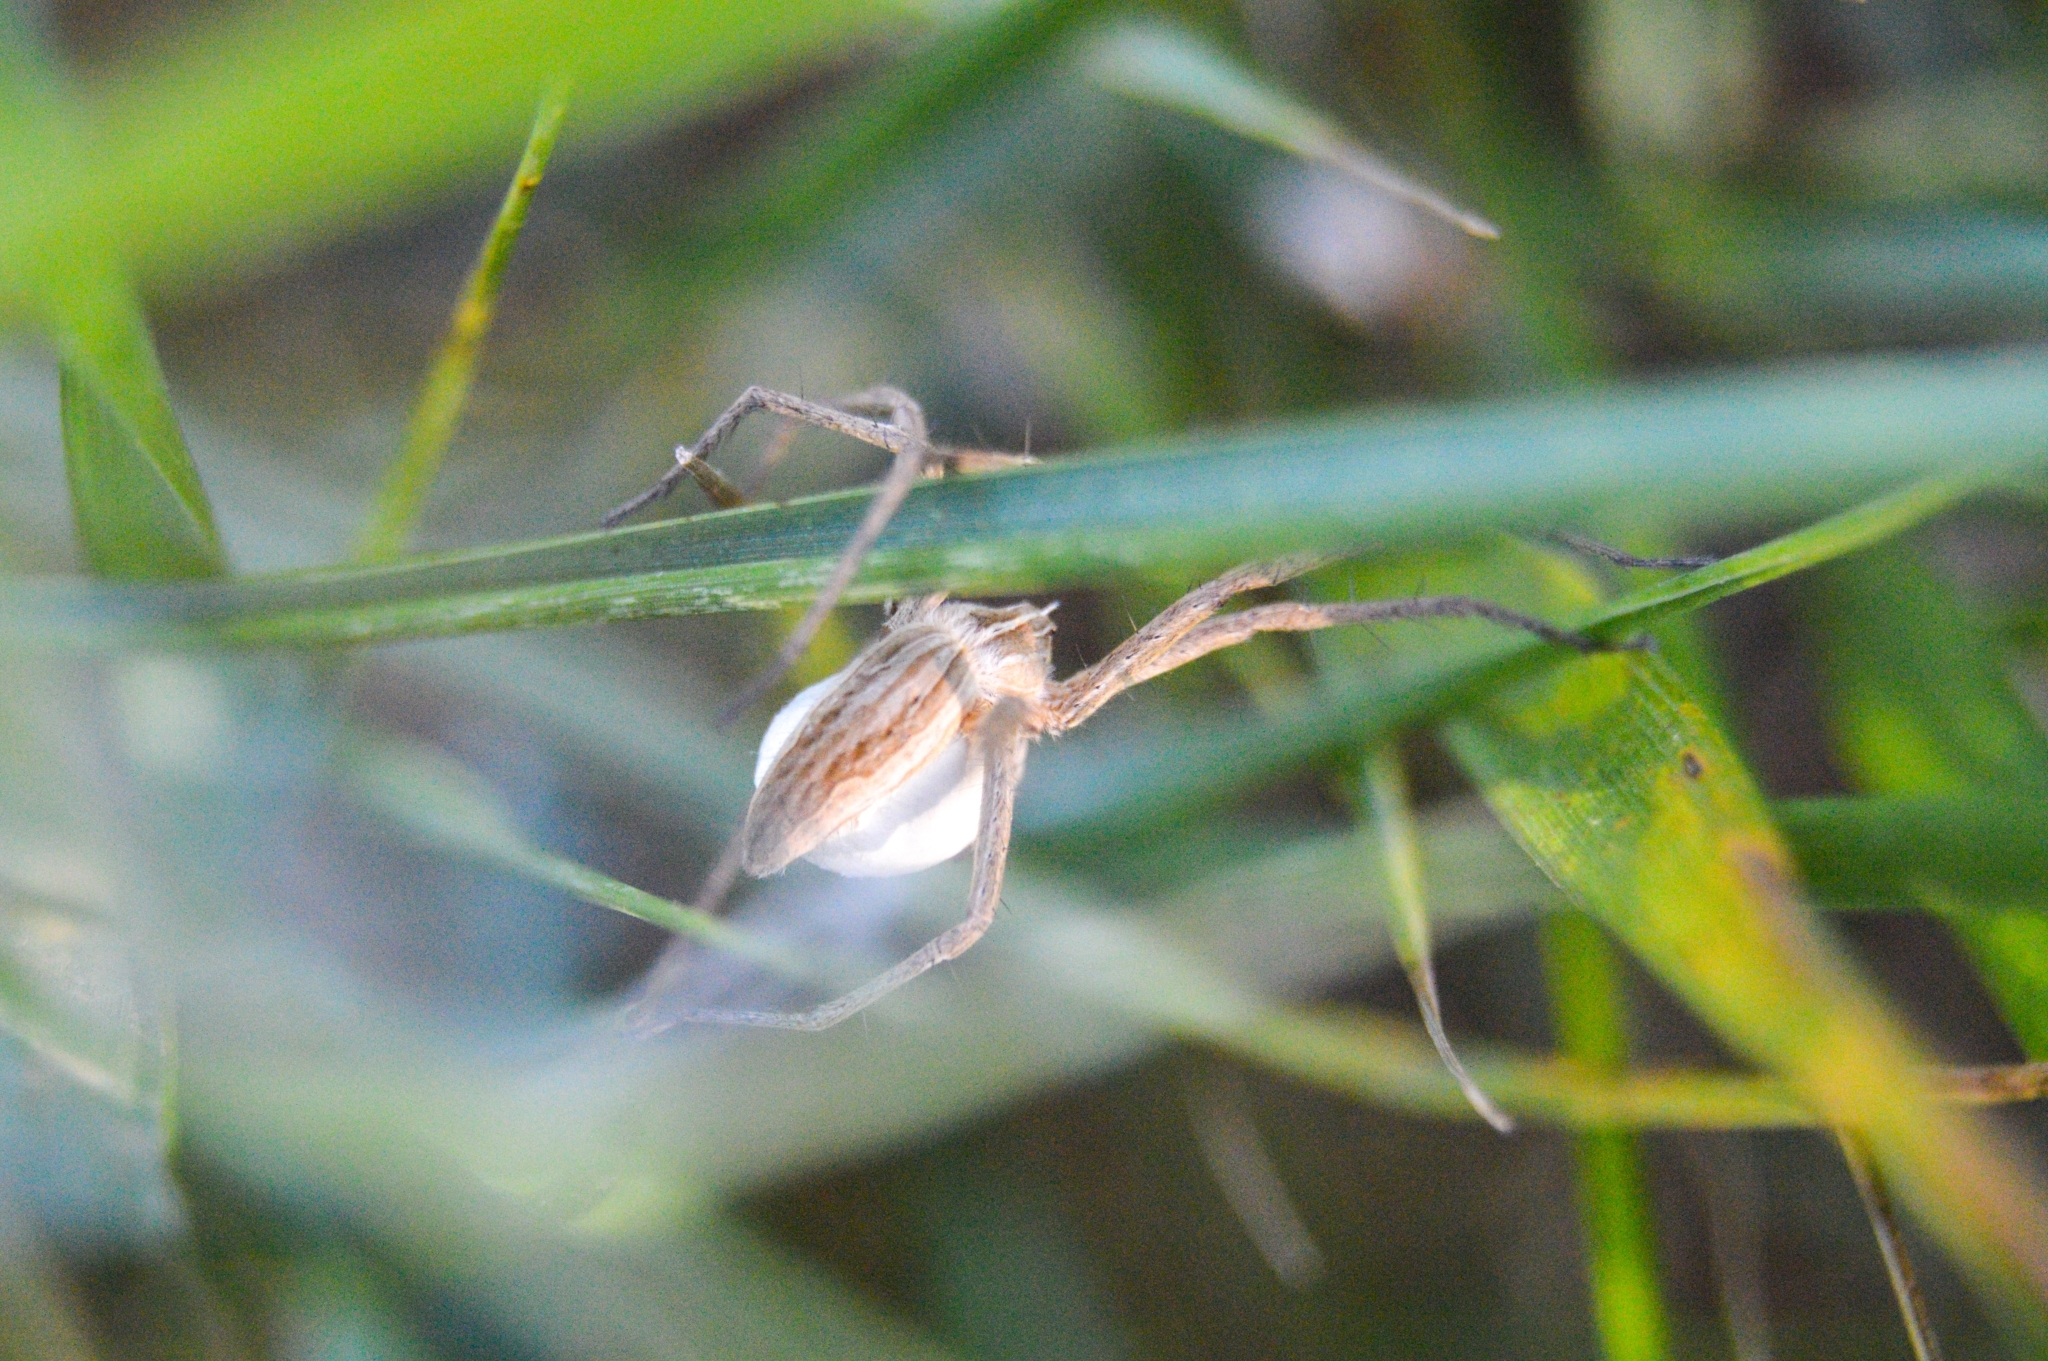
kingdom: Animalia
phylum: Arthropoda
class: Arachnida
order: Araneae
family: Pisauridae
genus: Pisaura
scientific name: Pisaura
